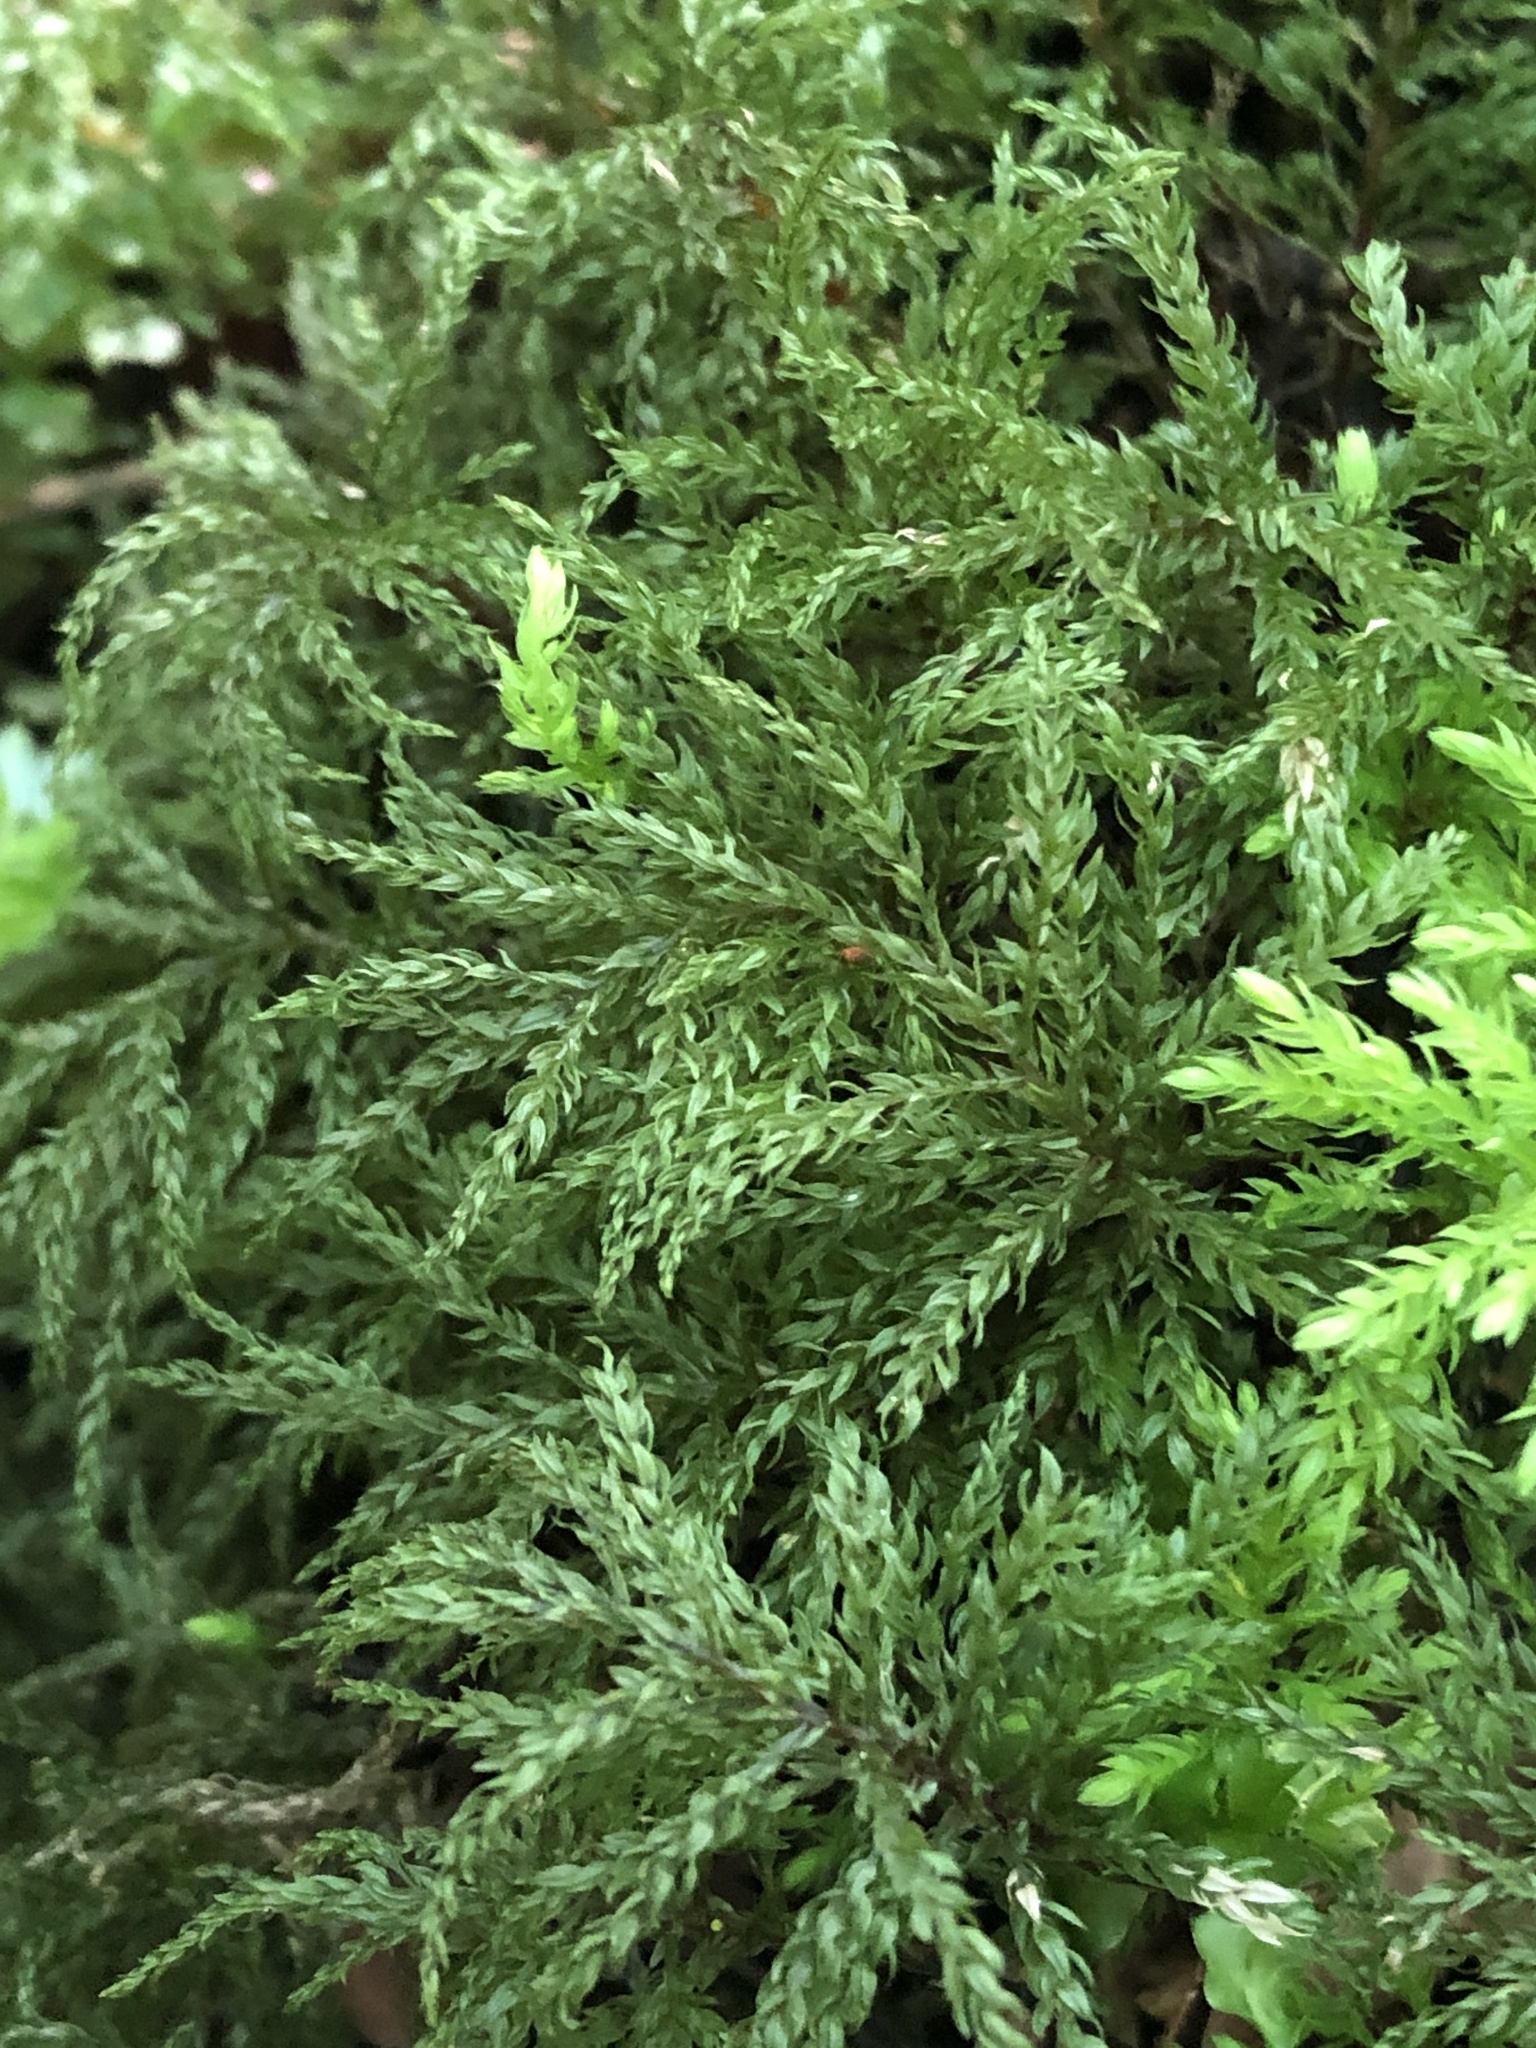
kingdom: Plantae
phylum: Bryophyta
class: Bryopsida
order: Bryales
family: Mniaceae
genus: Leucolepis
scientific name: Leucolepis acanthoneura
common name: Leucolepis umbrella moss
